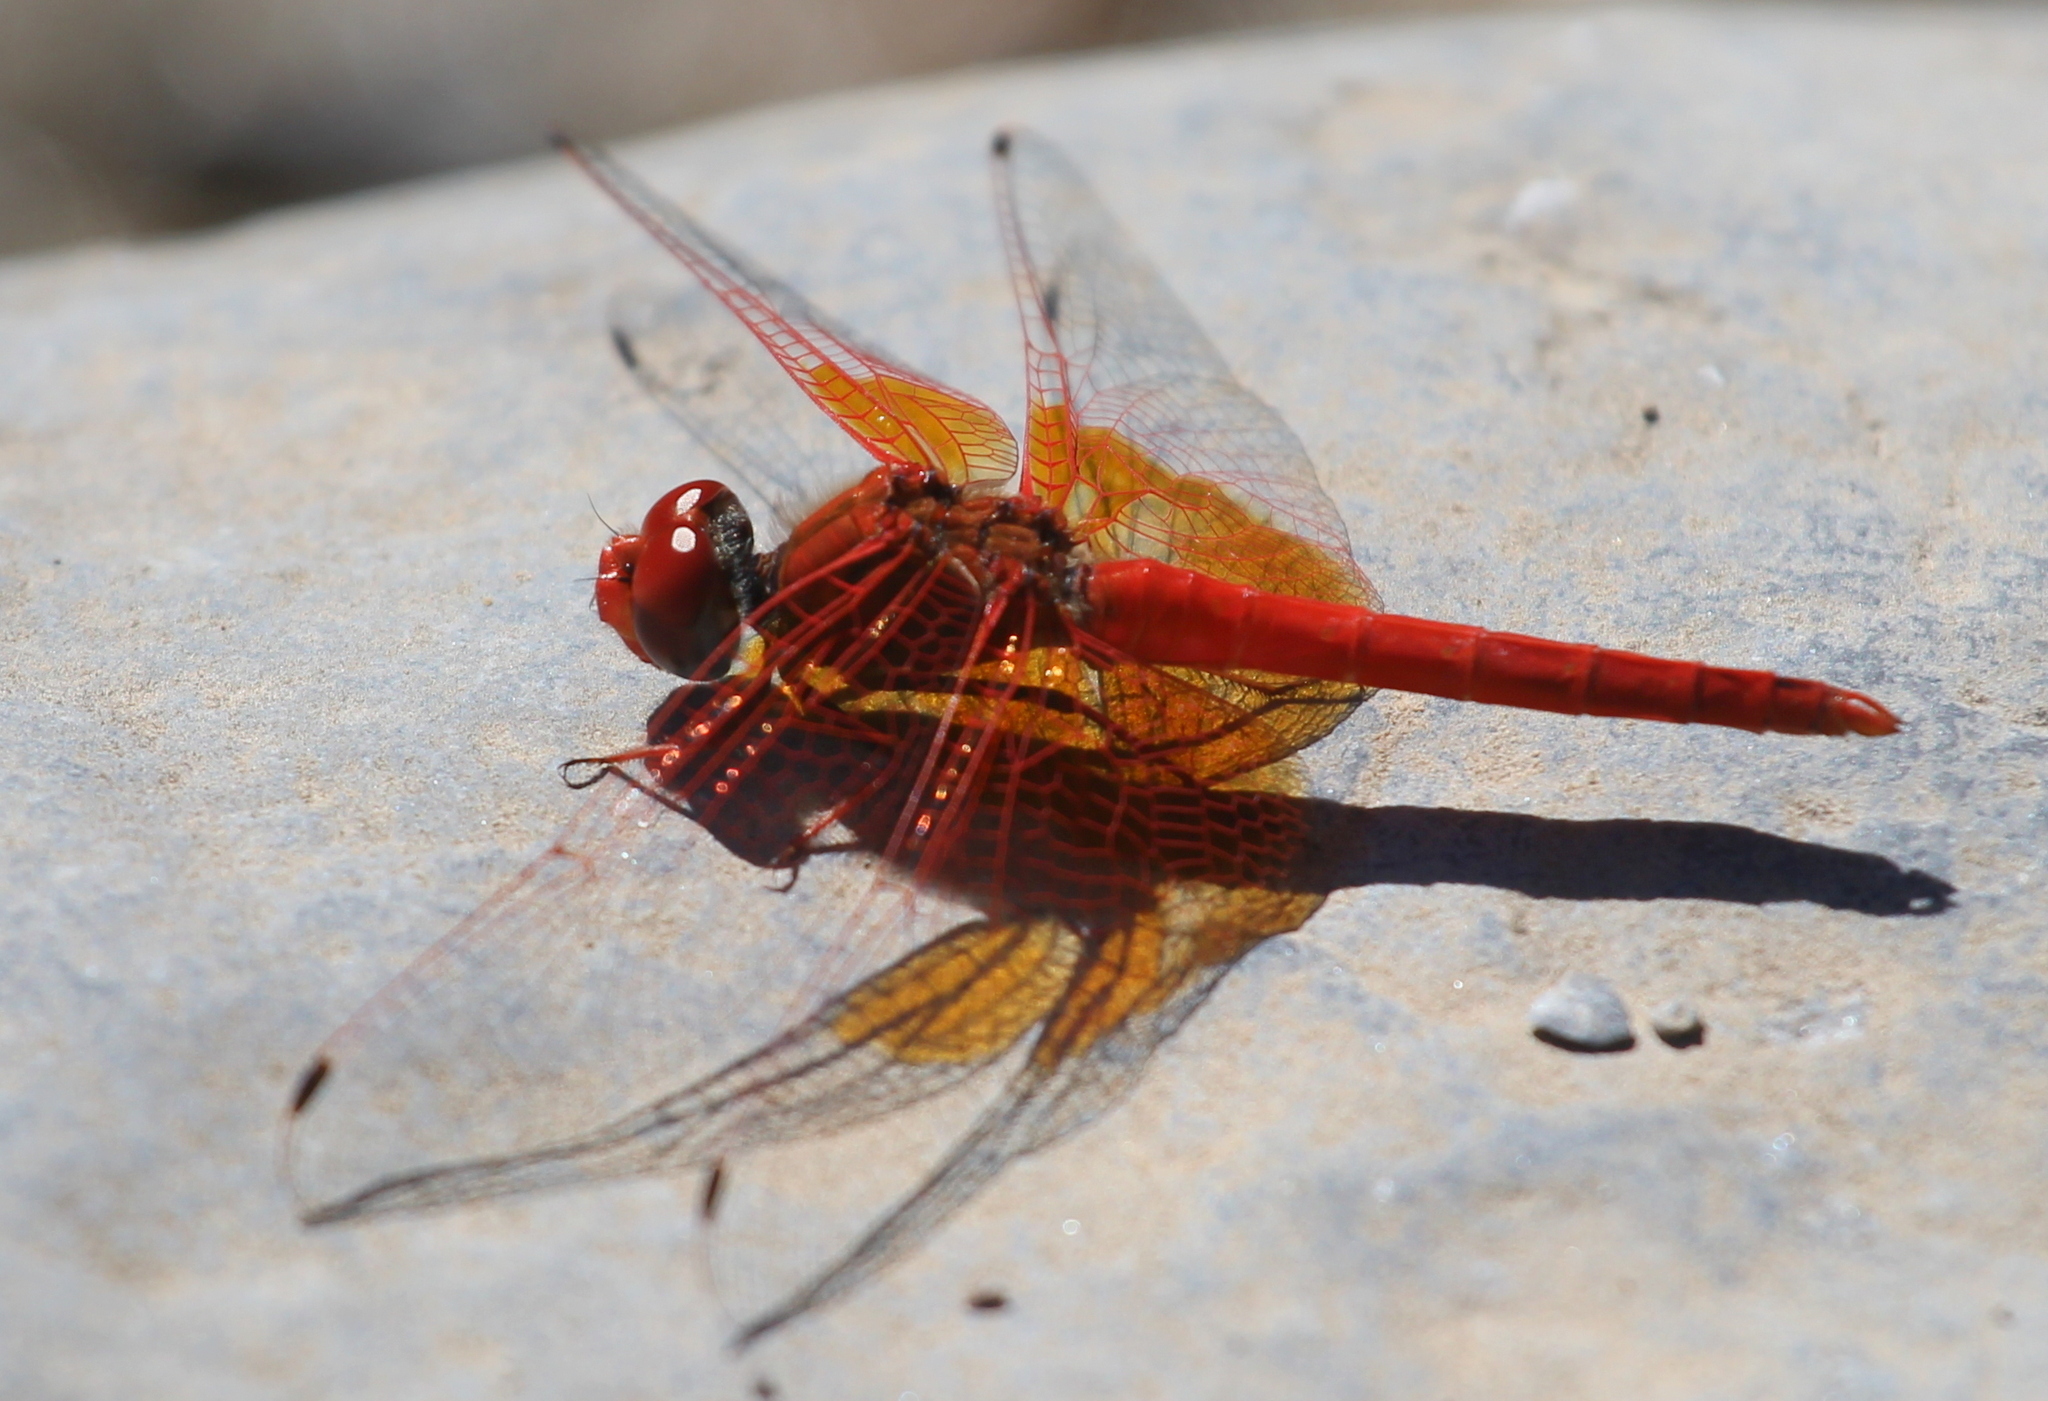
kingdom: Animalia
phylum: Arthropoda
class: Insecta
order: Odonata
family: Libellulidae
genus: Trithemis
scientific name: Trithemis kirbyi
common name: Kirby's dropwing
